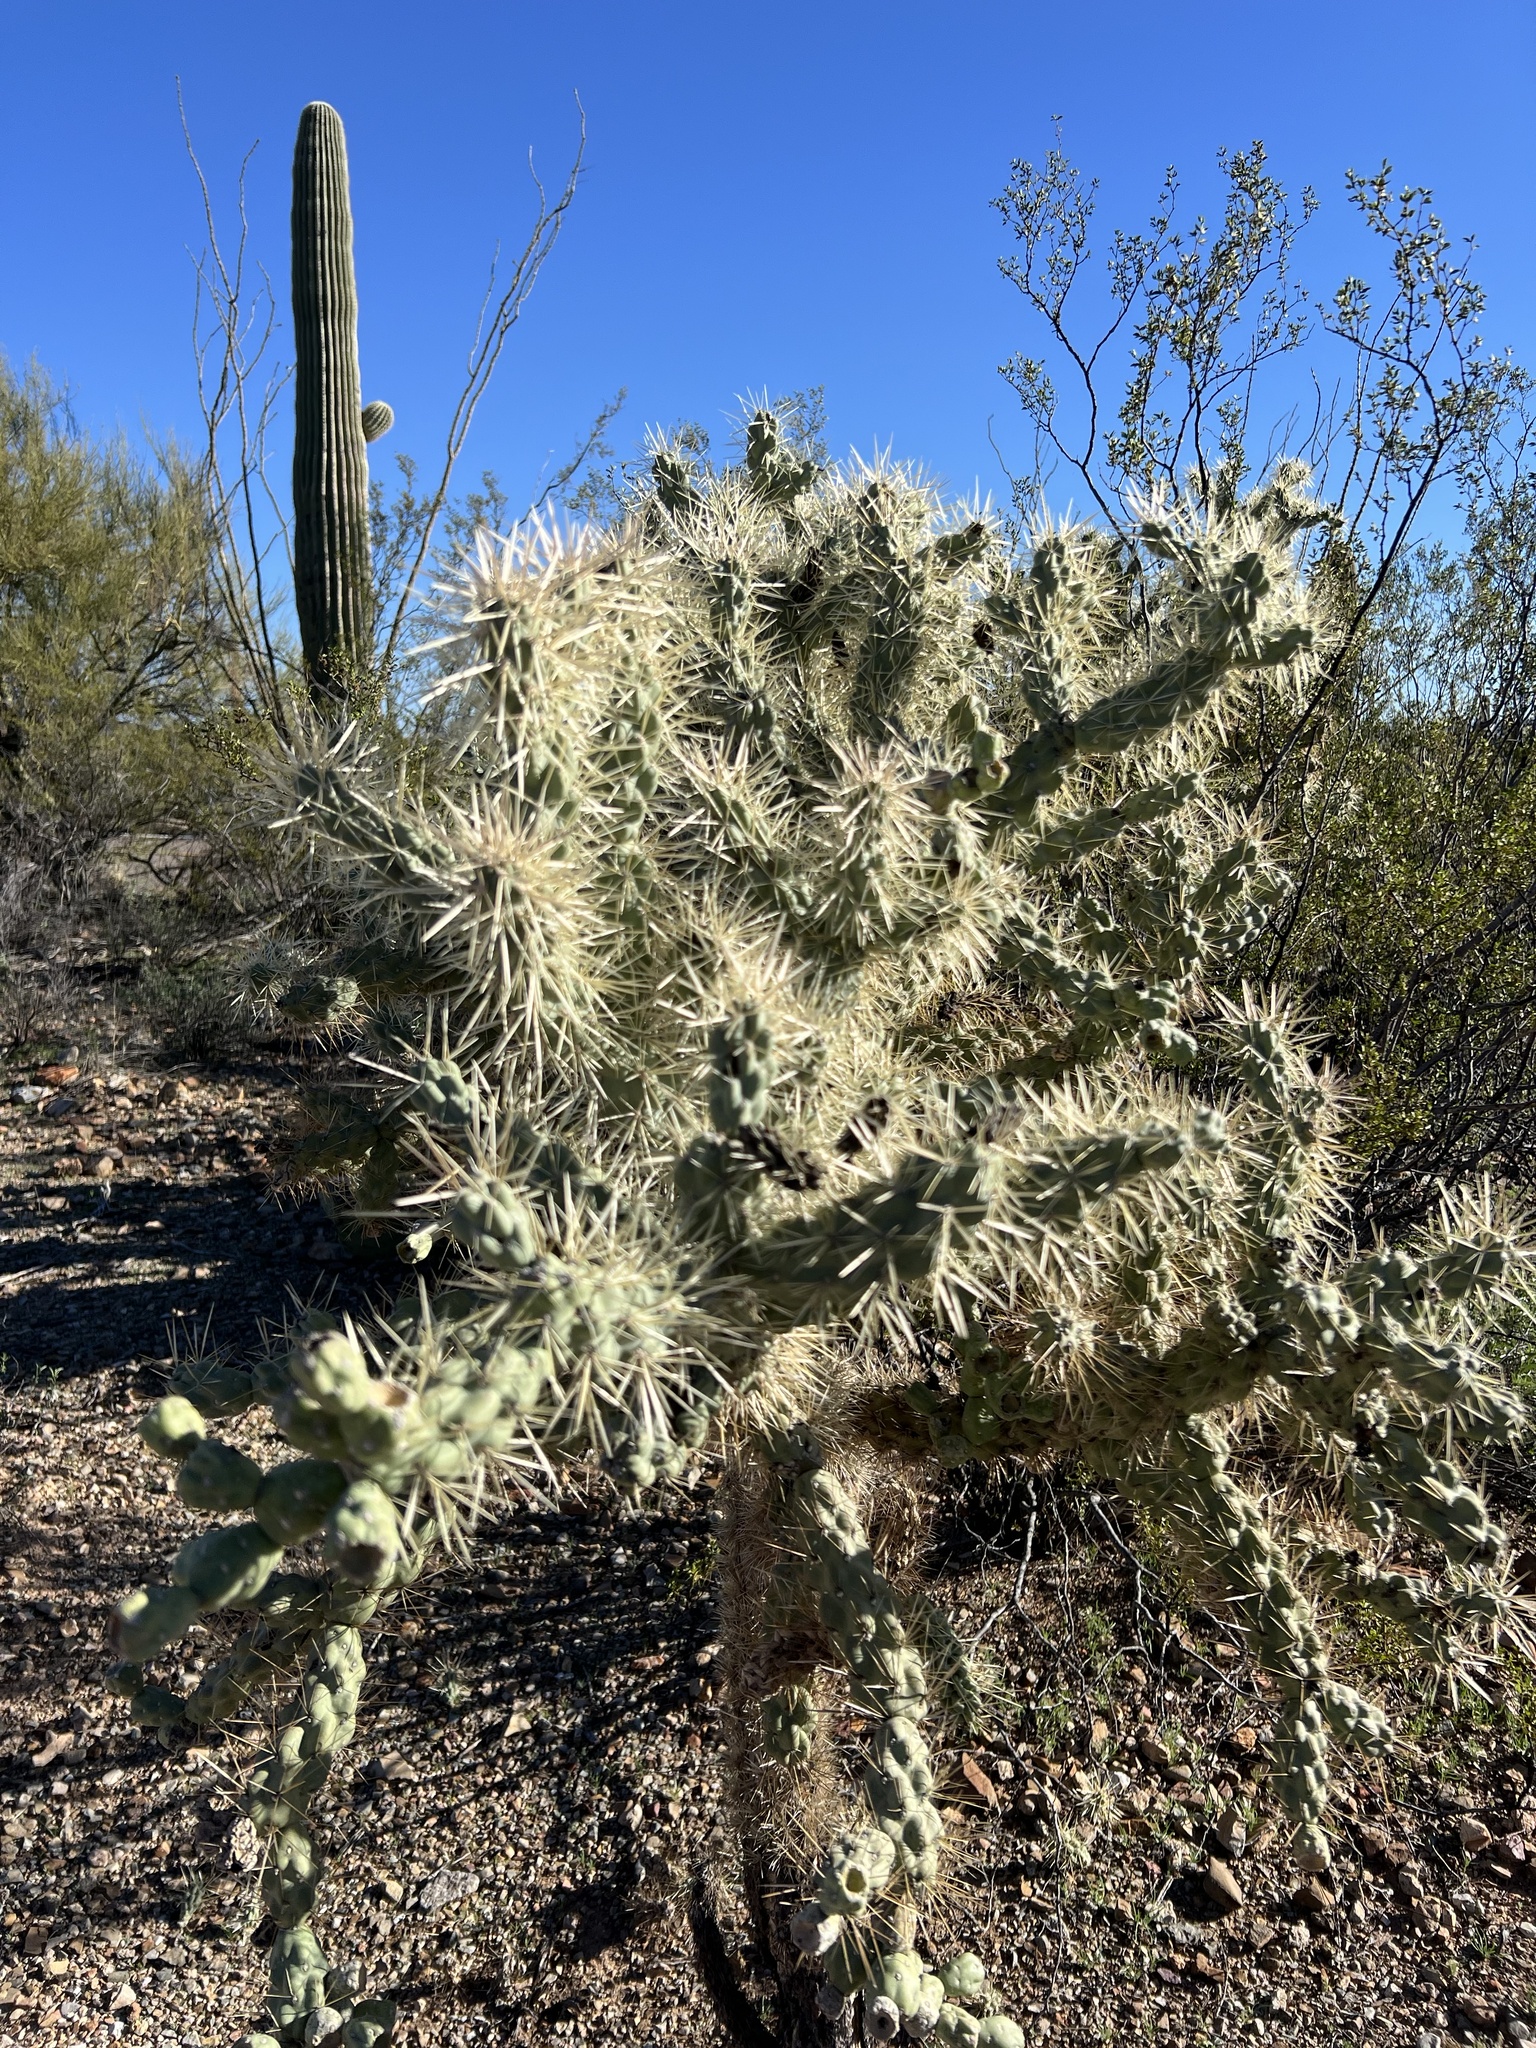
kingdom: Plantae
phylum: Tracheophyta
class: Magnoliopsida
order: Caryophyllales
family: Cactaceae
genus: Cylindropuntia
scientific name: Cylindropuntia fulgida
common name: Jumping cholla
